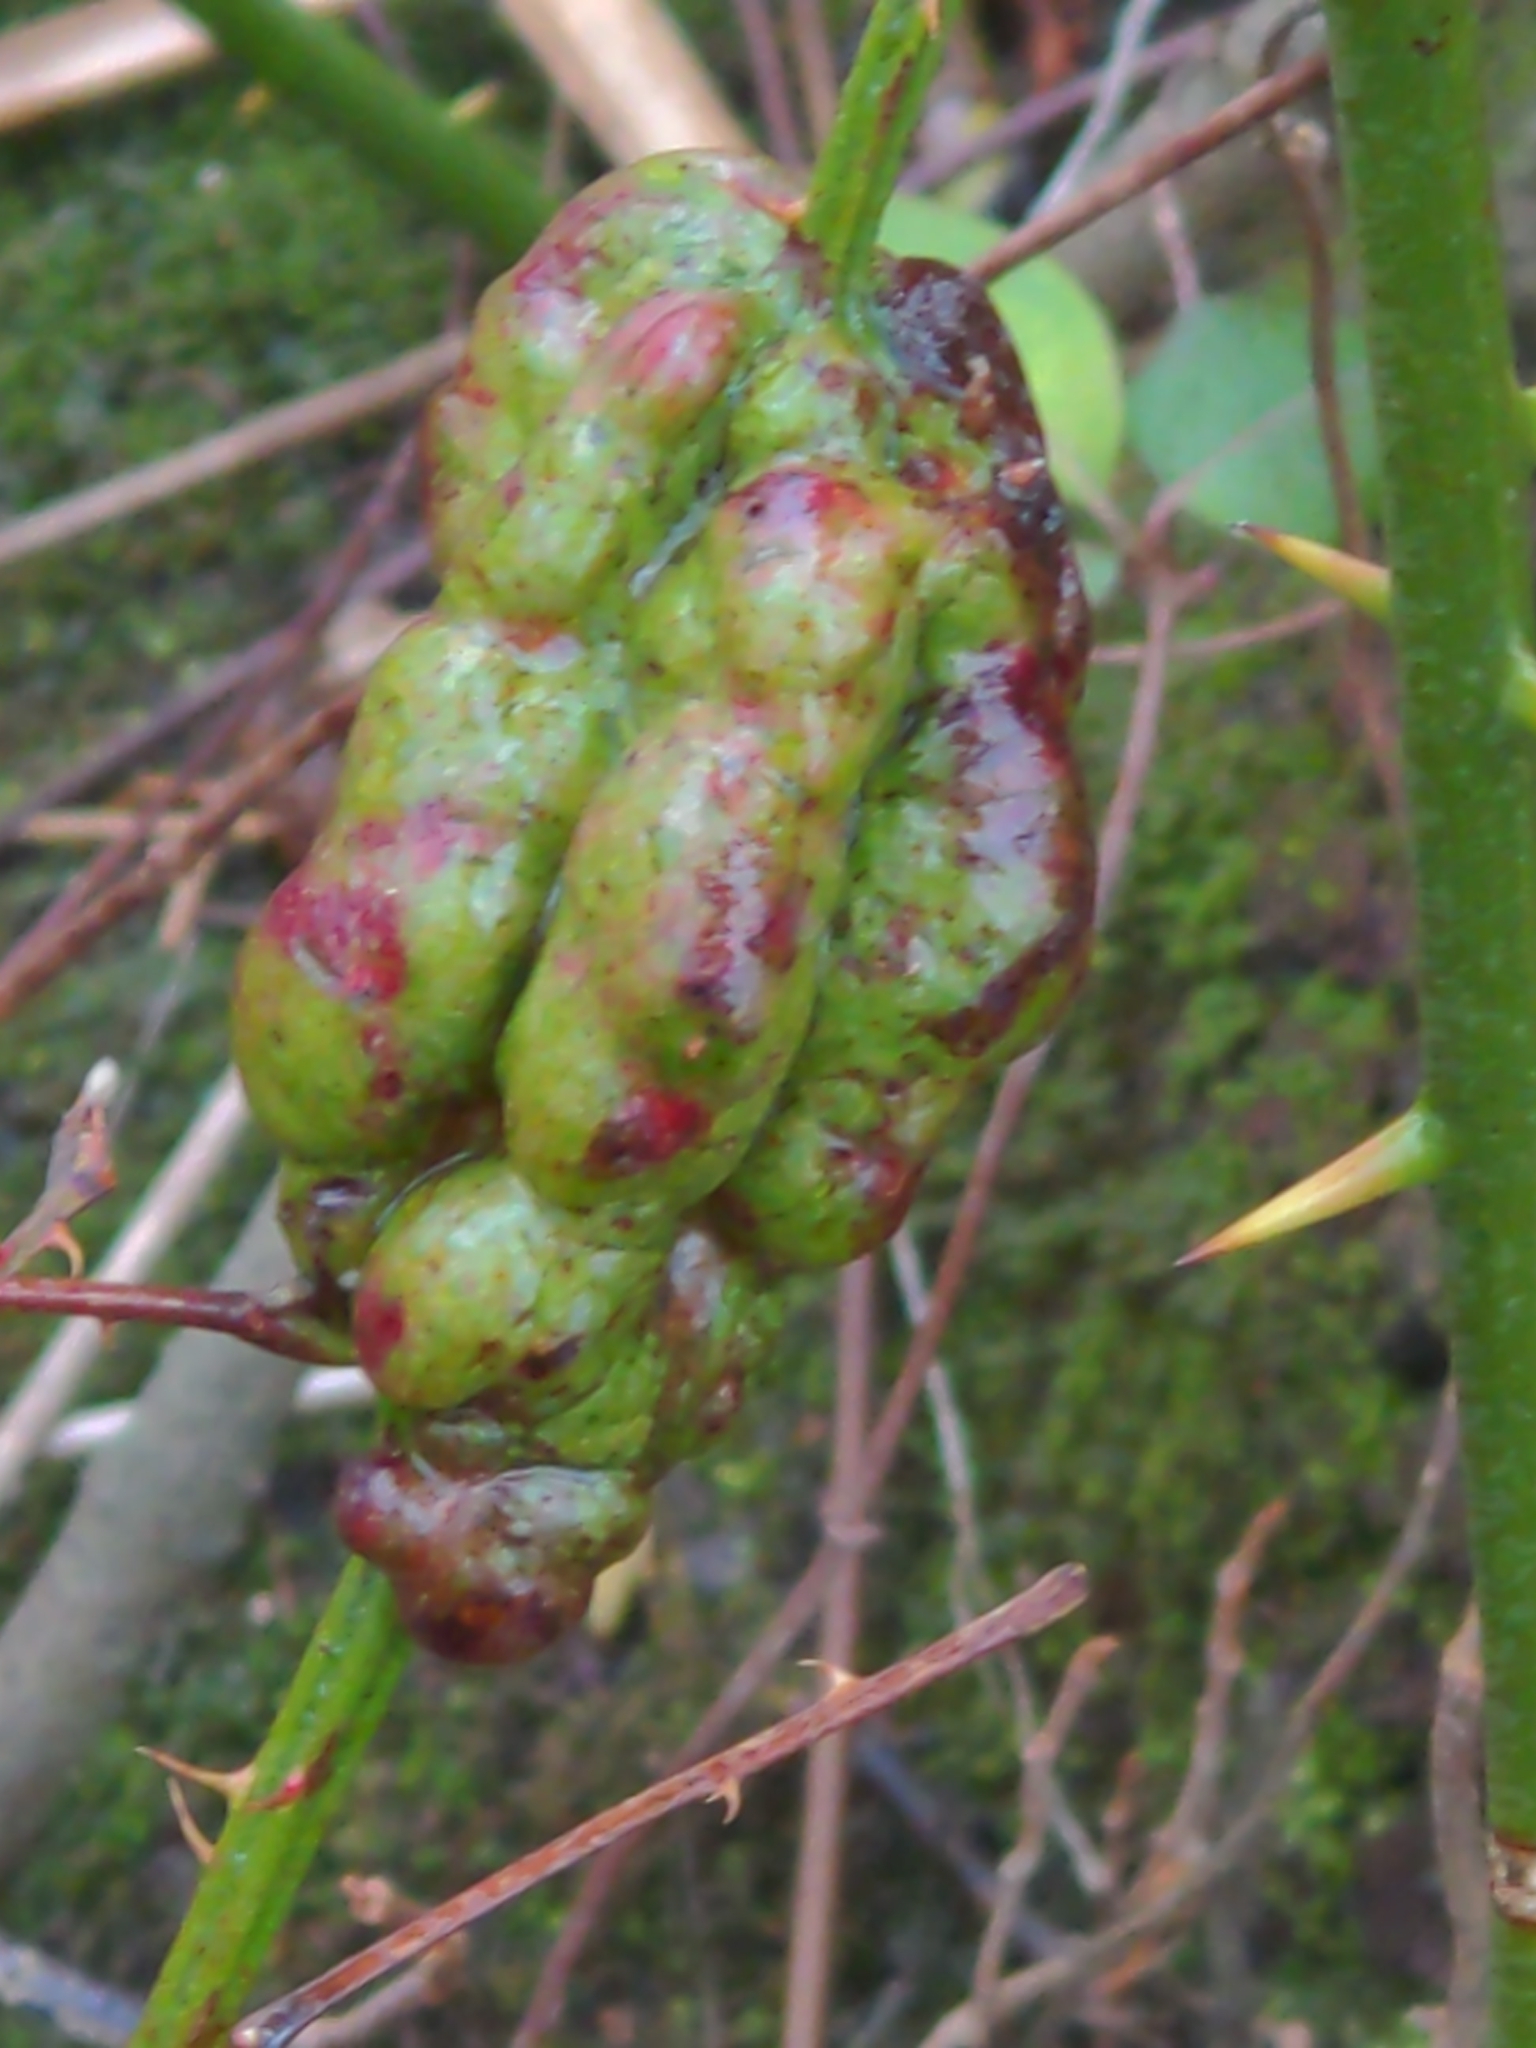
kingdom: Animalia
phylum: Arthropoda
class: Insecta
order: Hymenoptera
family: Cynipidae
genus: Diastrophus
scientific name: Diastrophus
